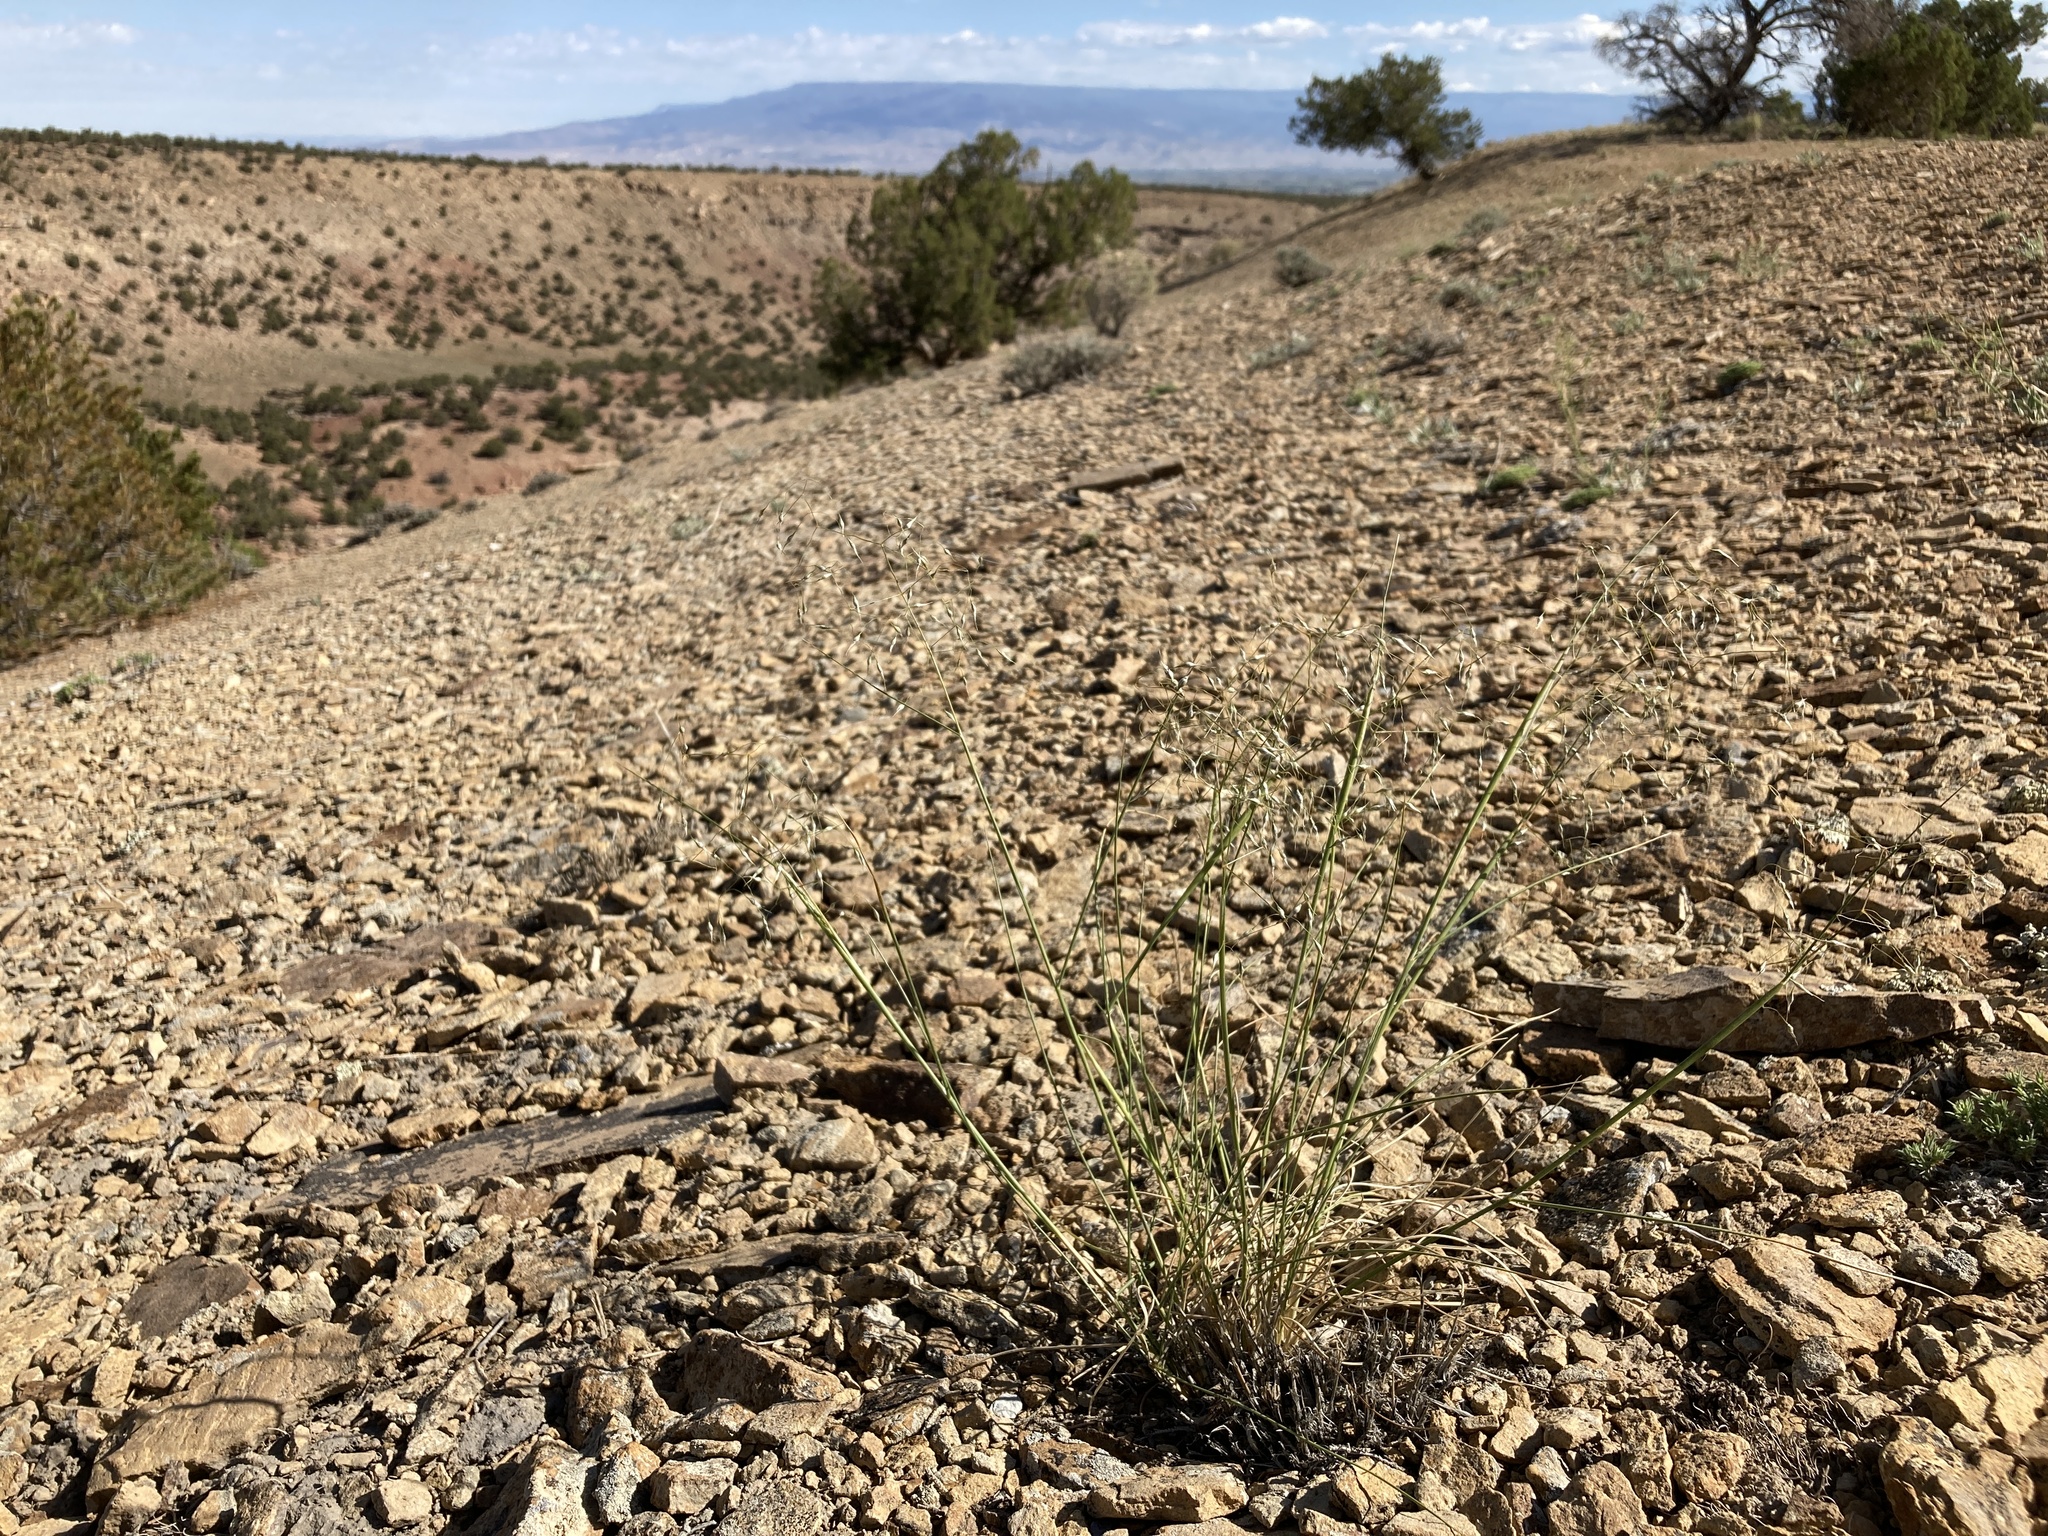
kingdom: Plantae
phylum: Tracheophyta
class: Liliopsida
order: Poales
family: Poaceae
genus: Eriocoma
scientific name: Eriocoma hymenoides
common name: Indian mountain ricegrass
